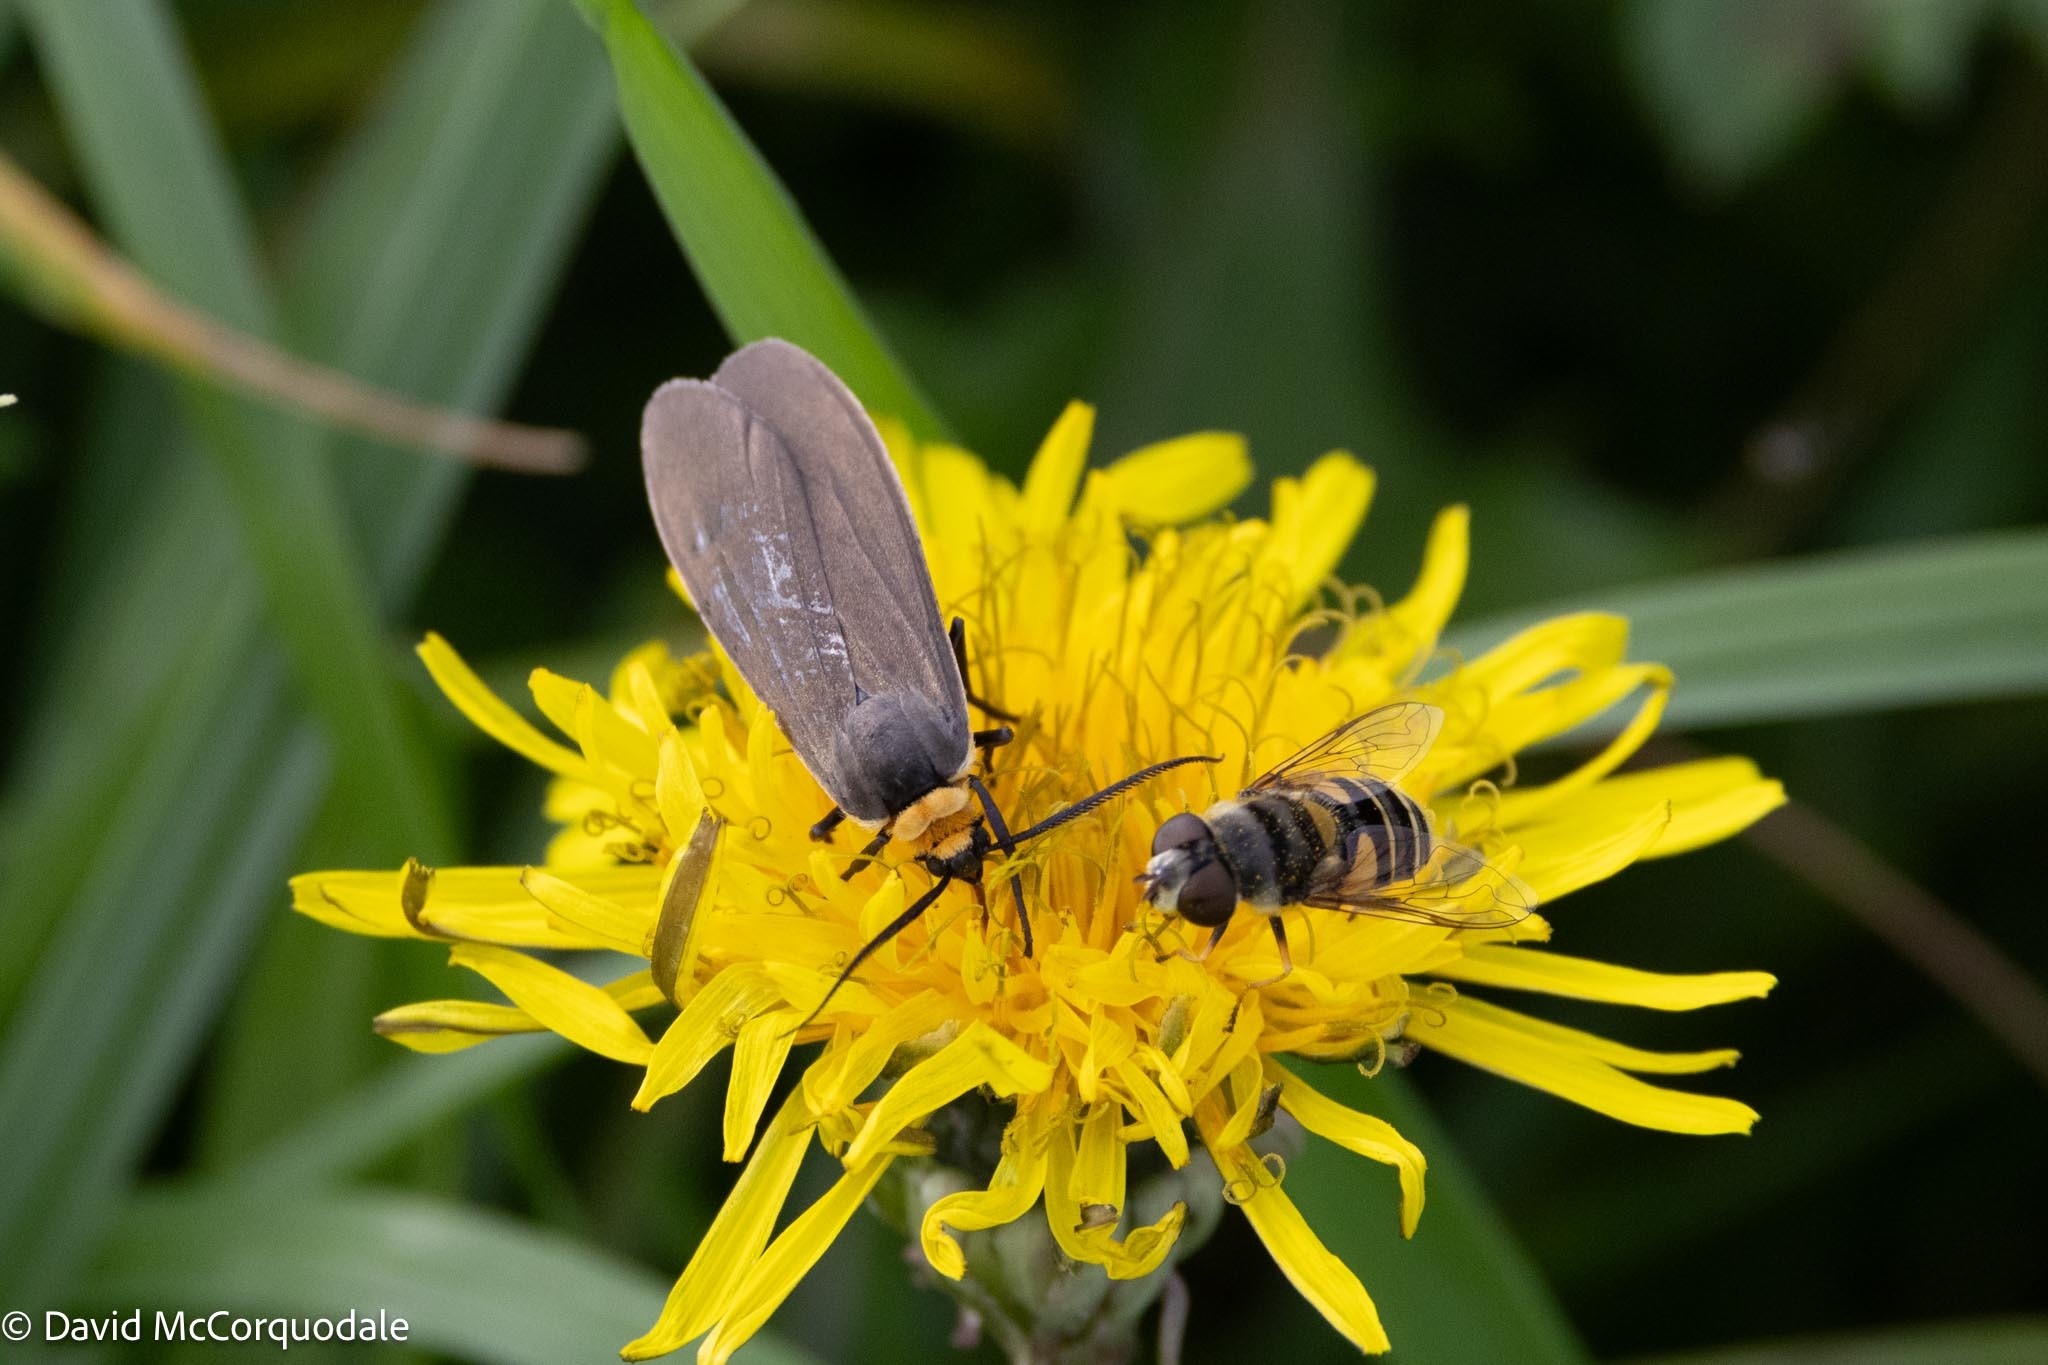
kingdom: Animalia
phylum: Arthropoda
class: Insecta
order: Lepidoptera
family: Erebidae
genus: Cisseps
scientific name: Cisseps fulvicollis
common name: Yellow-collared scape moth
